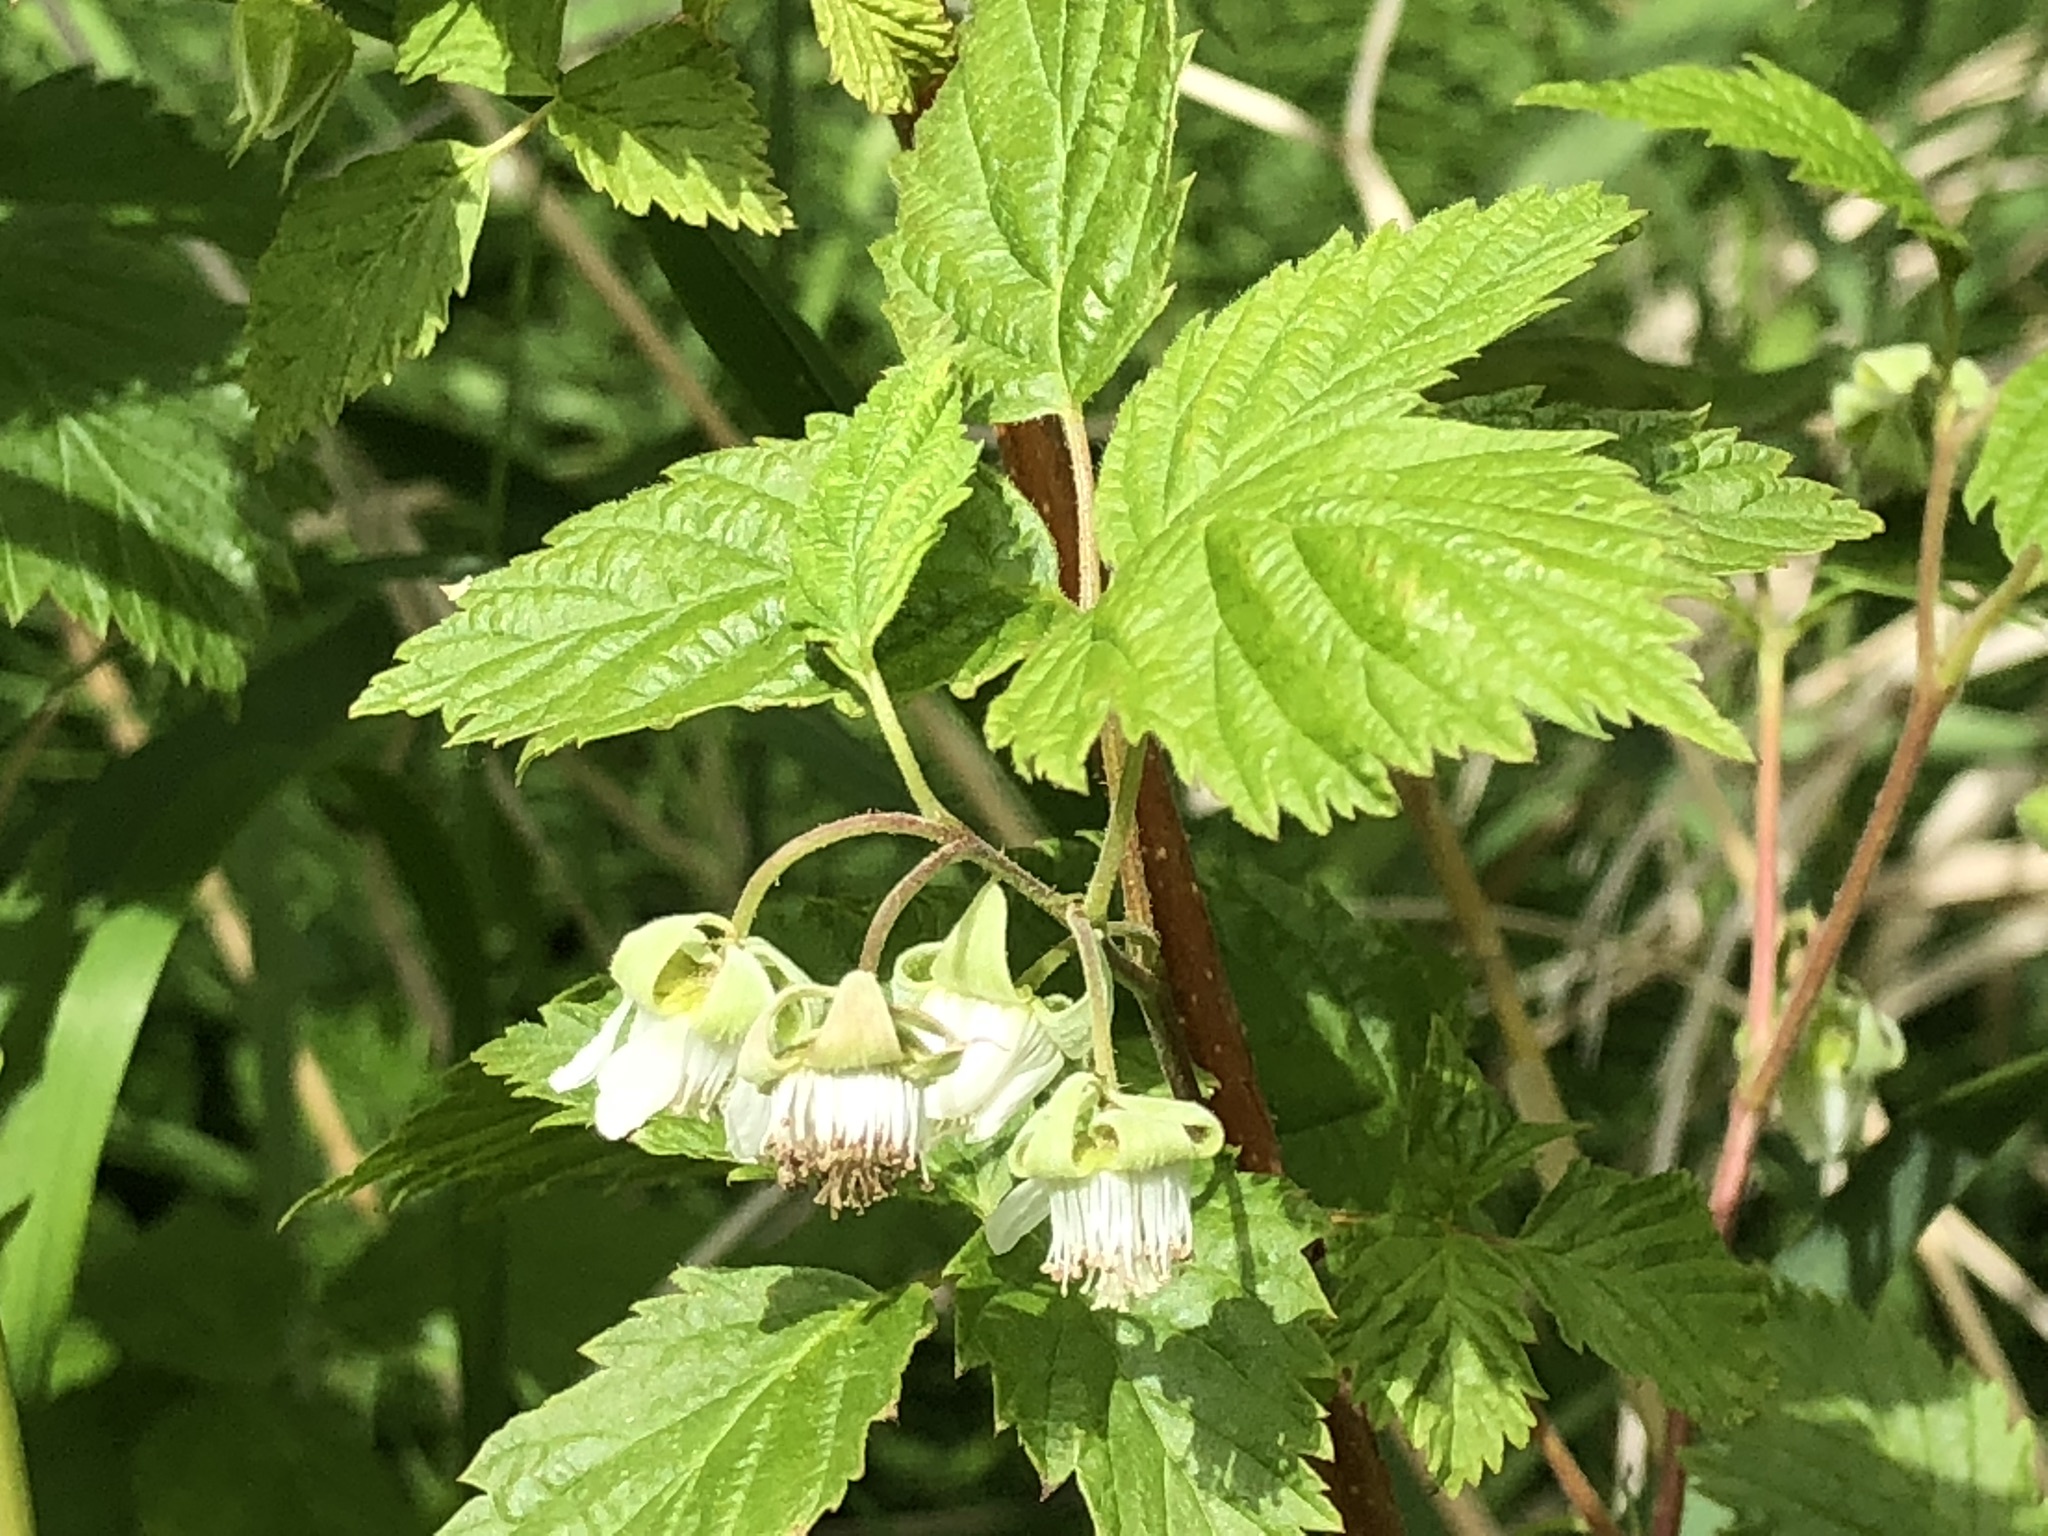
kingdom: Plantae
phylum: Tracheophyta
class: Magnoliopsida
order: Rosales
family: Rosaceae
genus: Rubus
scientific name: Rubus idaeus
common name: Raspberry
